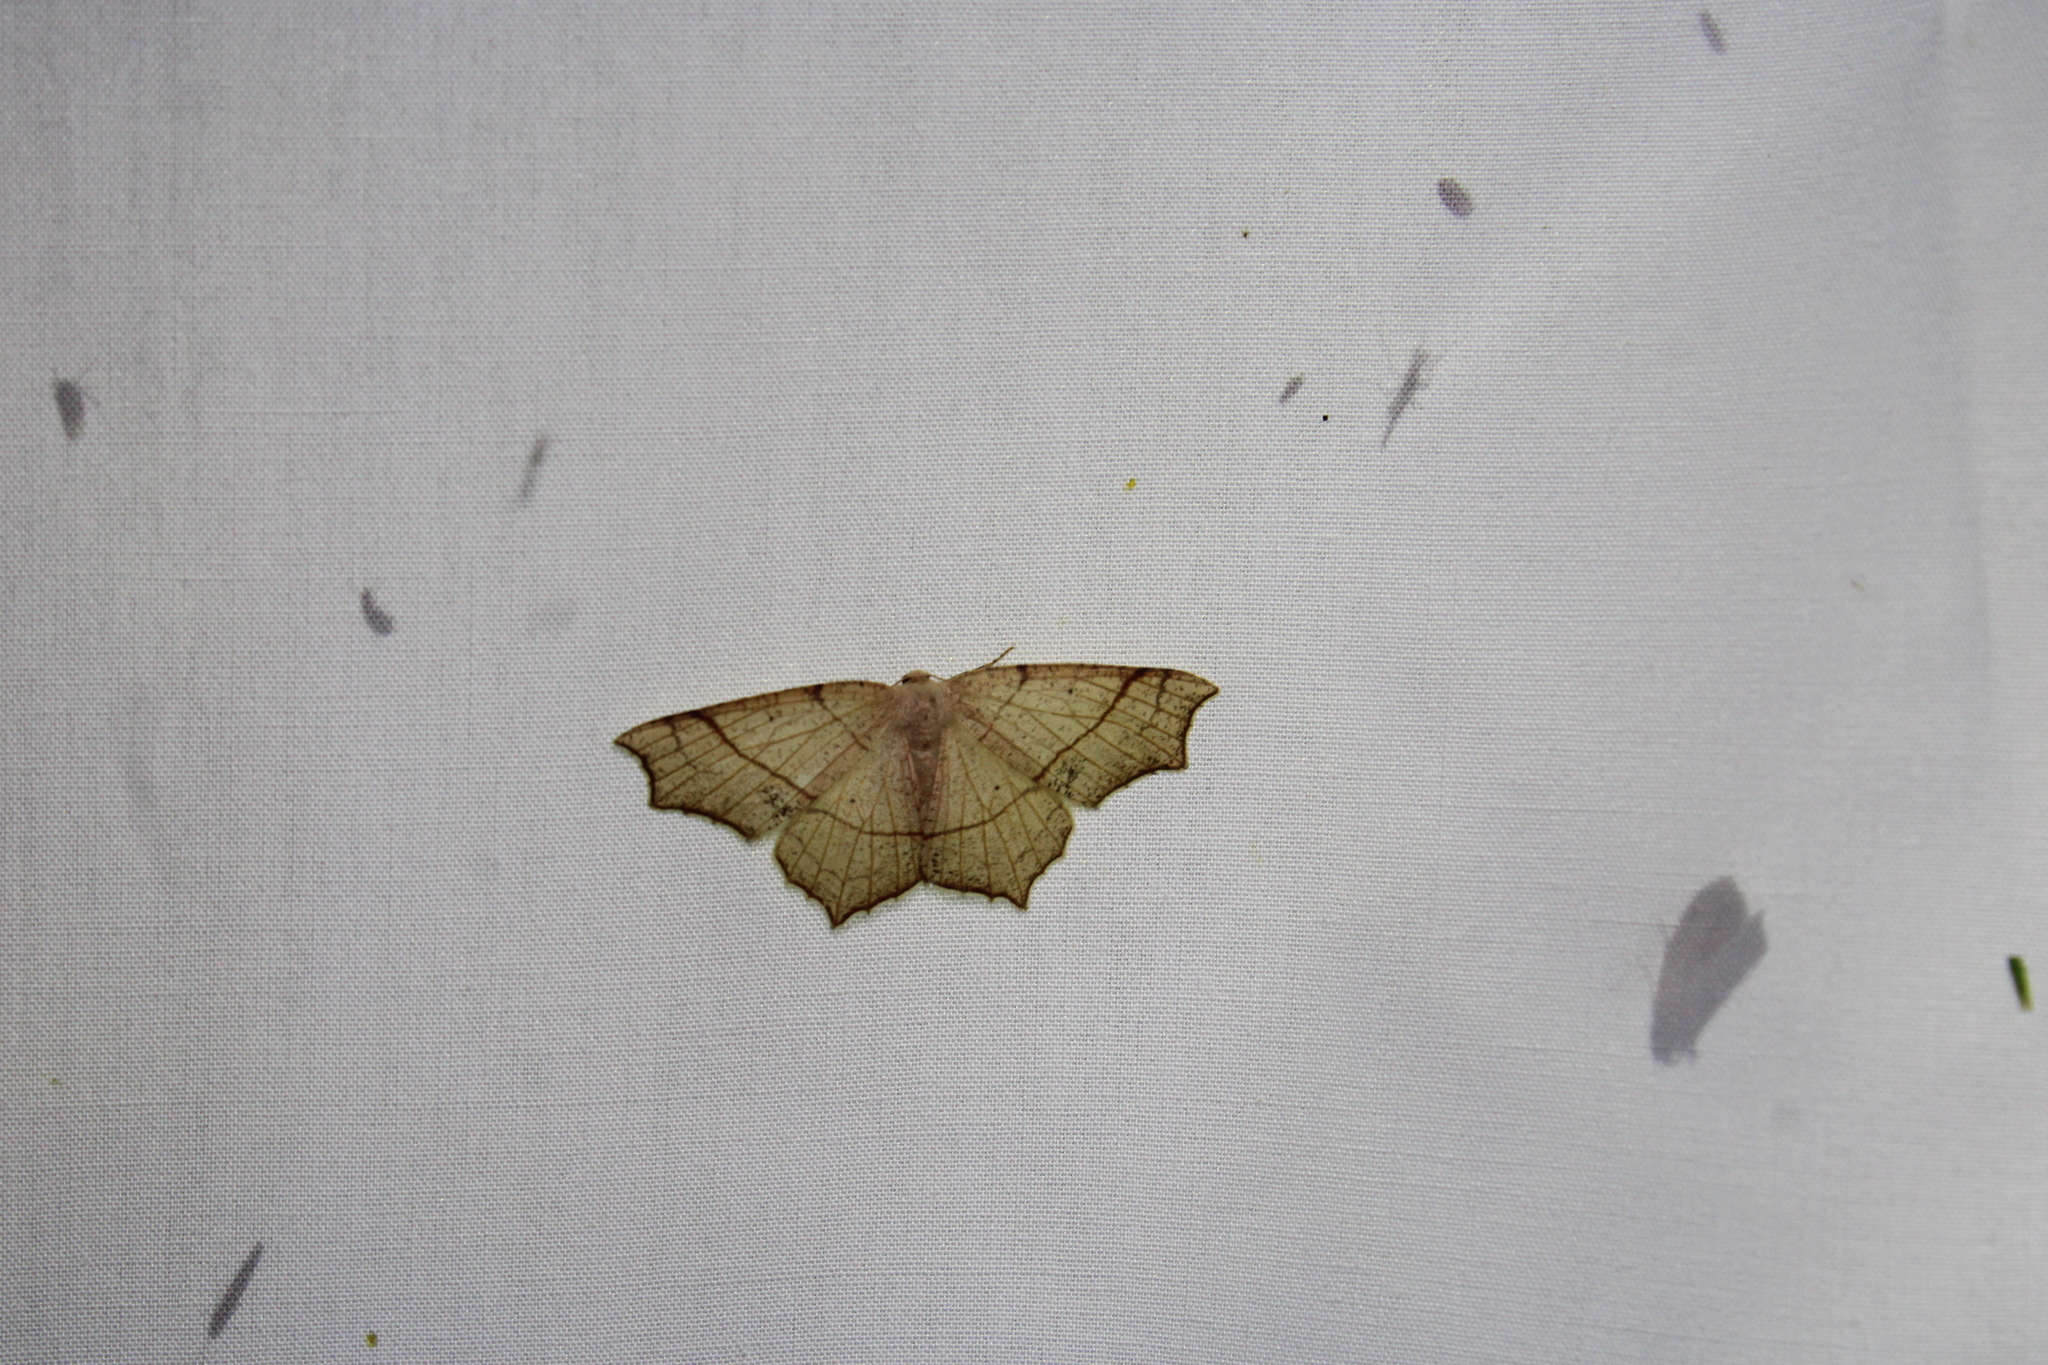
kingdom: Animalia
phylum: Arthropoda
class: Insecta
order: Lepidoptera
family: Geometridae
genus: Besma
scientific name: Besma quercivoraria
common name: Oak besma
